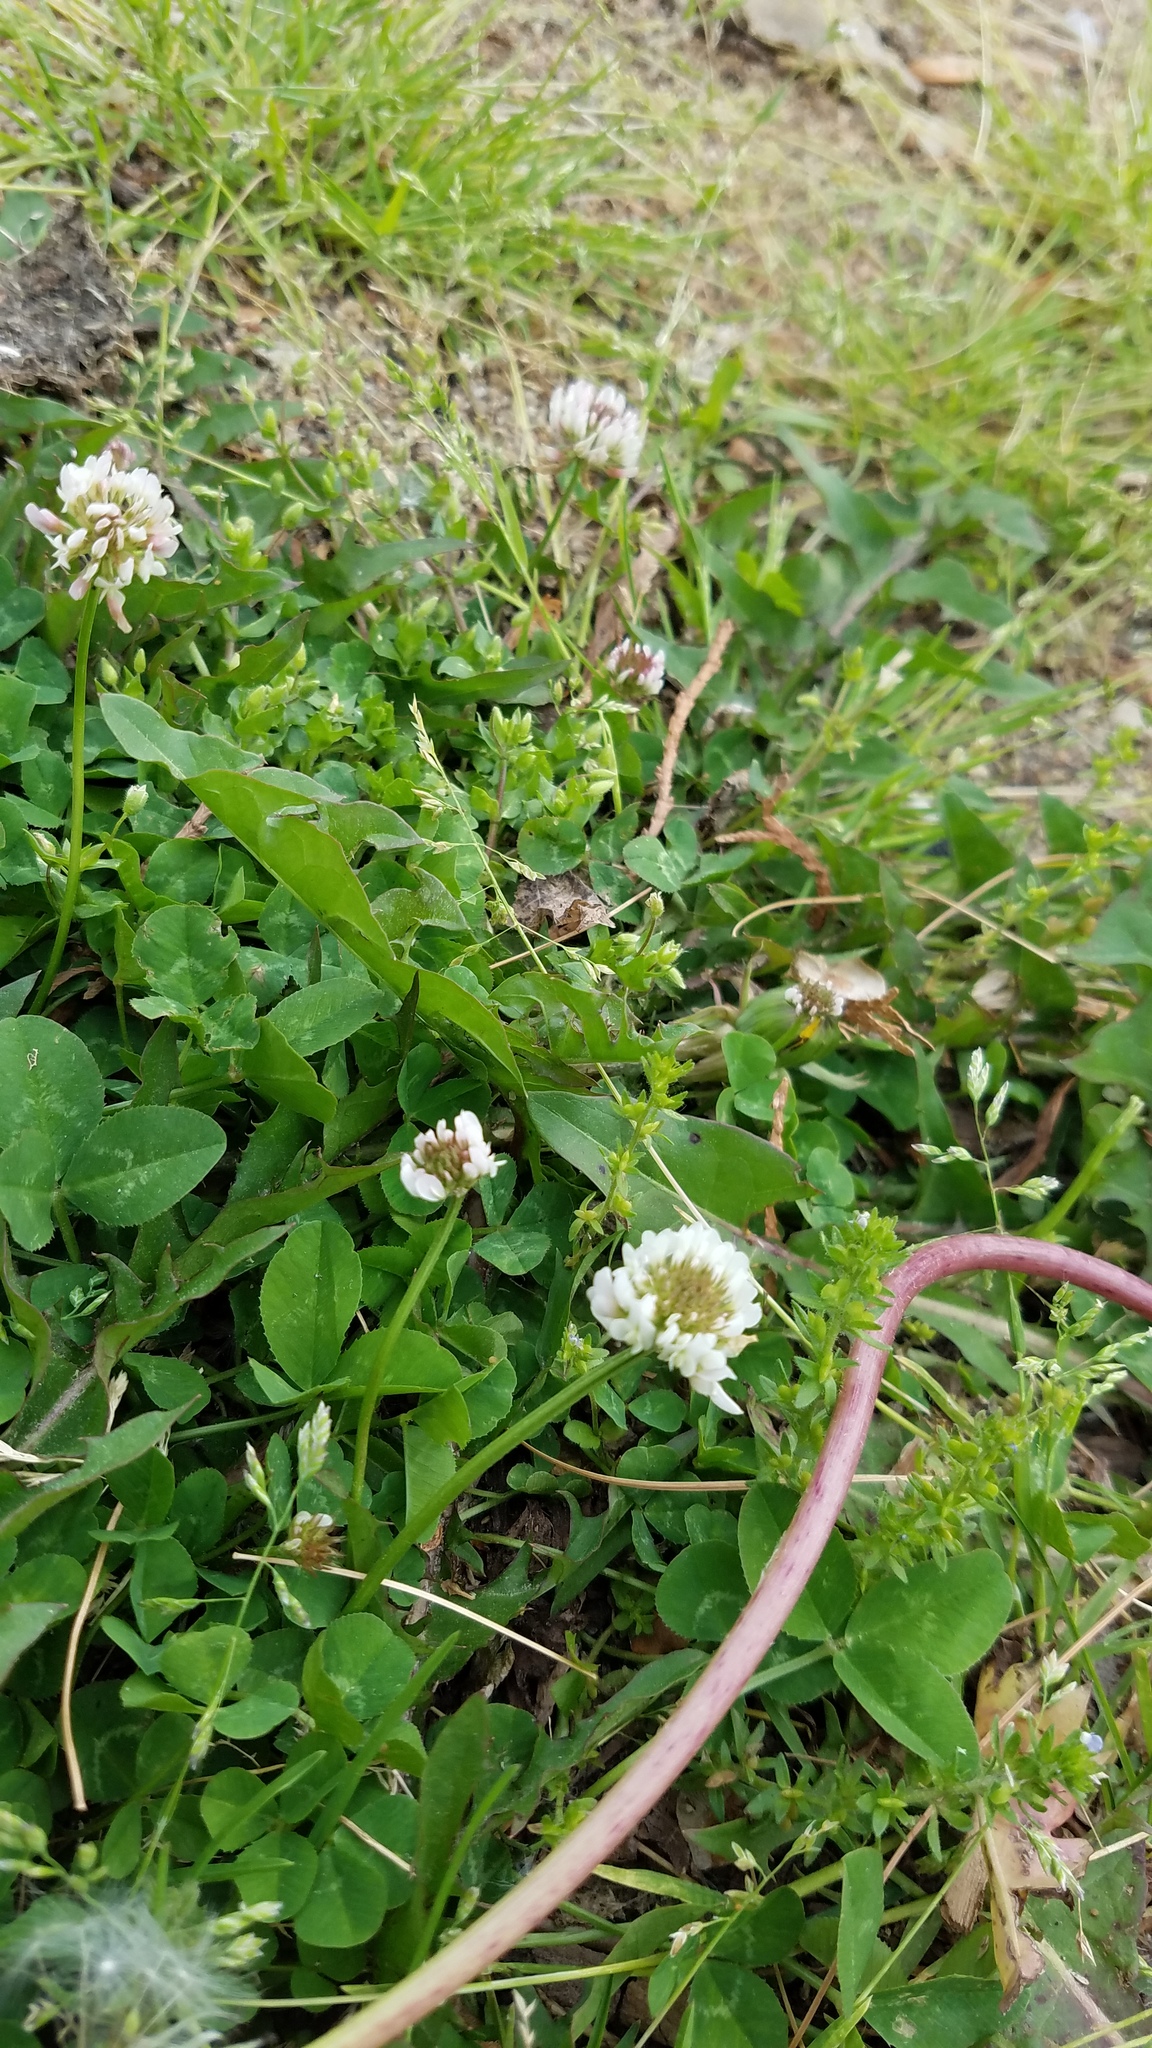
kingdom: Plantae
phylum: Tracheophyta
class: Magnoliopsida
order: Fabales
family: Fabaceae
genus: Trifolium
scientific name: Trifolium repens
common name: White clover
